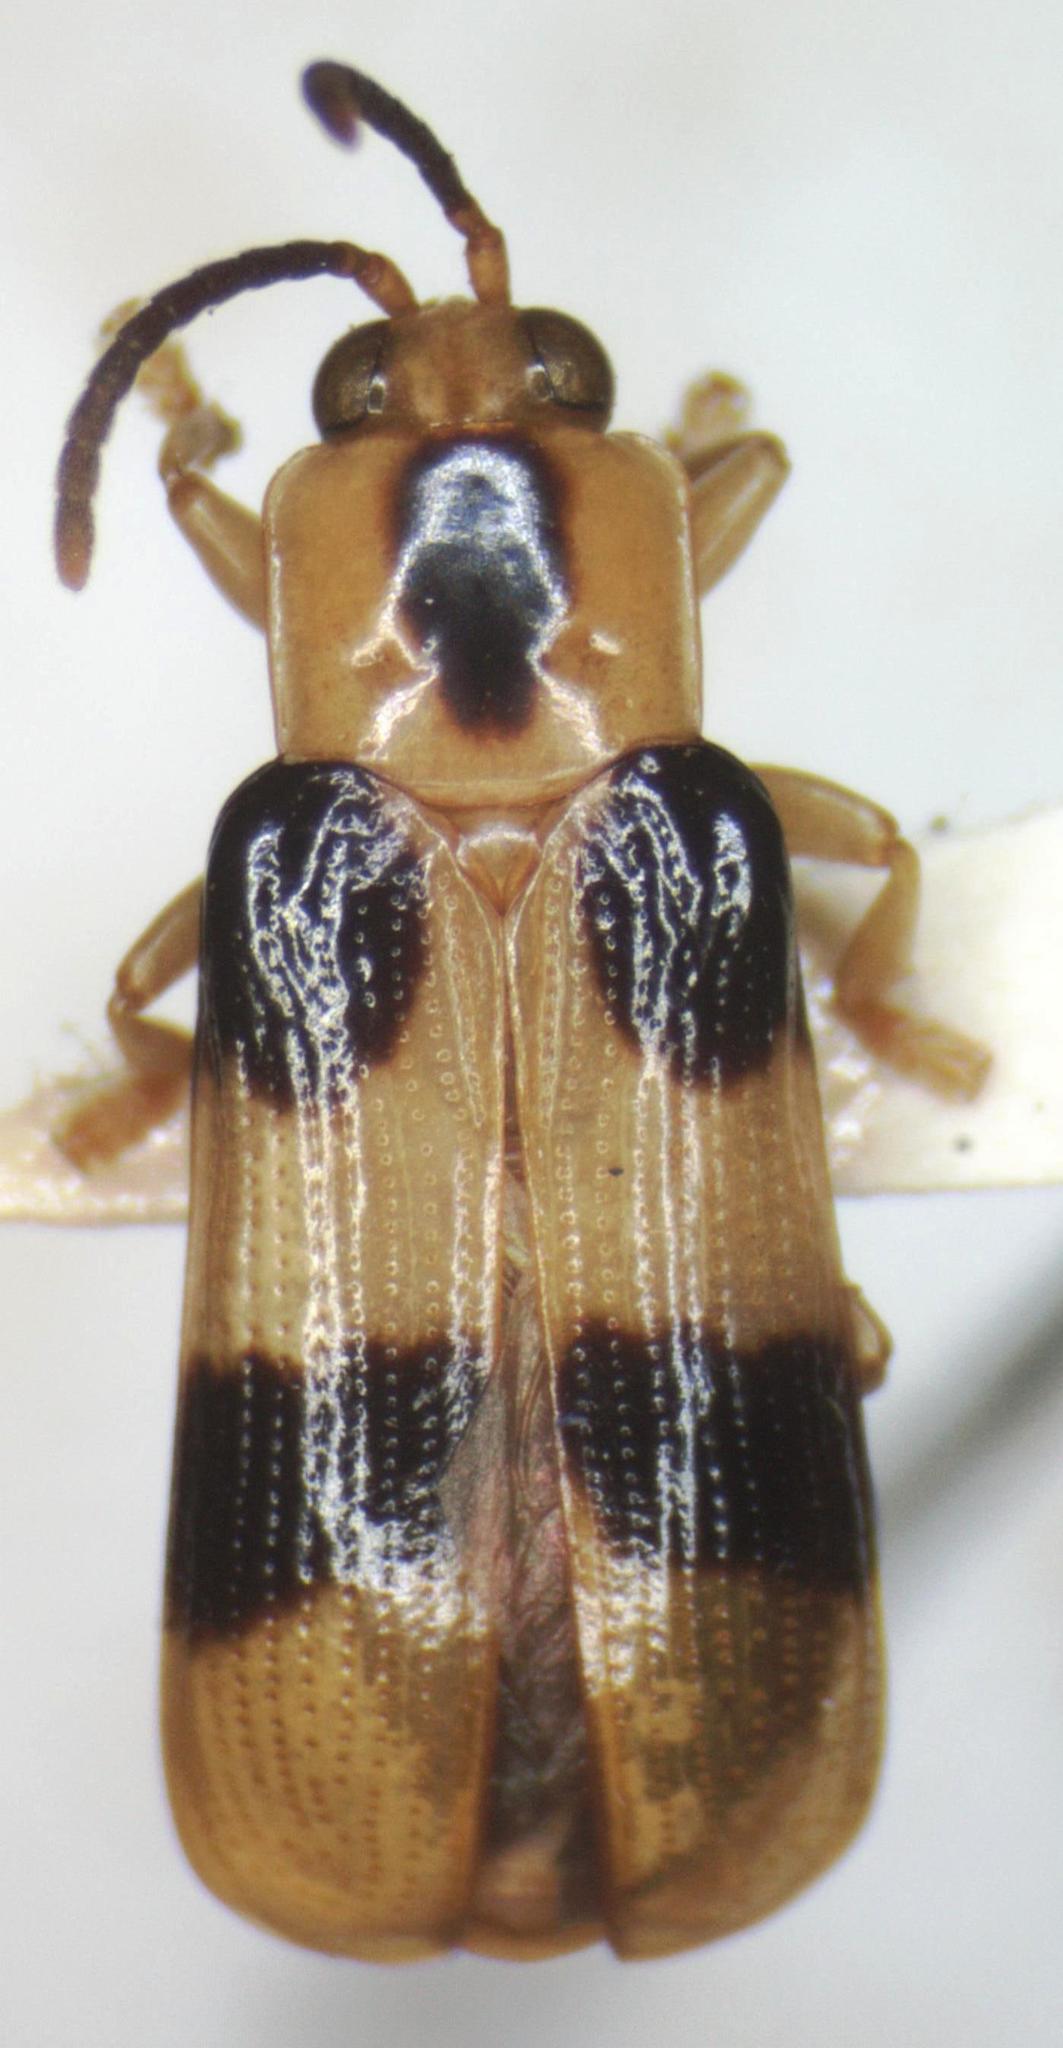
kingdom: Animalia
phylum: Arthropoda
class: Insecta
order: Coleoptera
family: Chrysomelidae
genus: Cephaloleia
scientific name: Cephaloleia reventazonica
